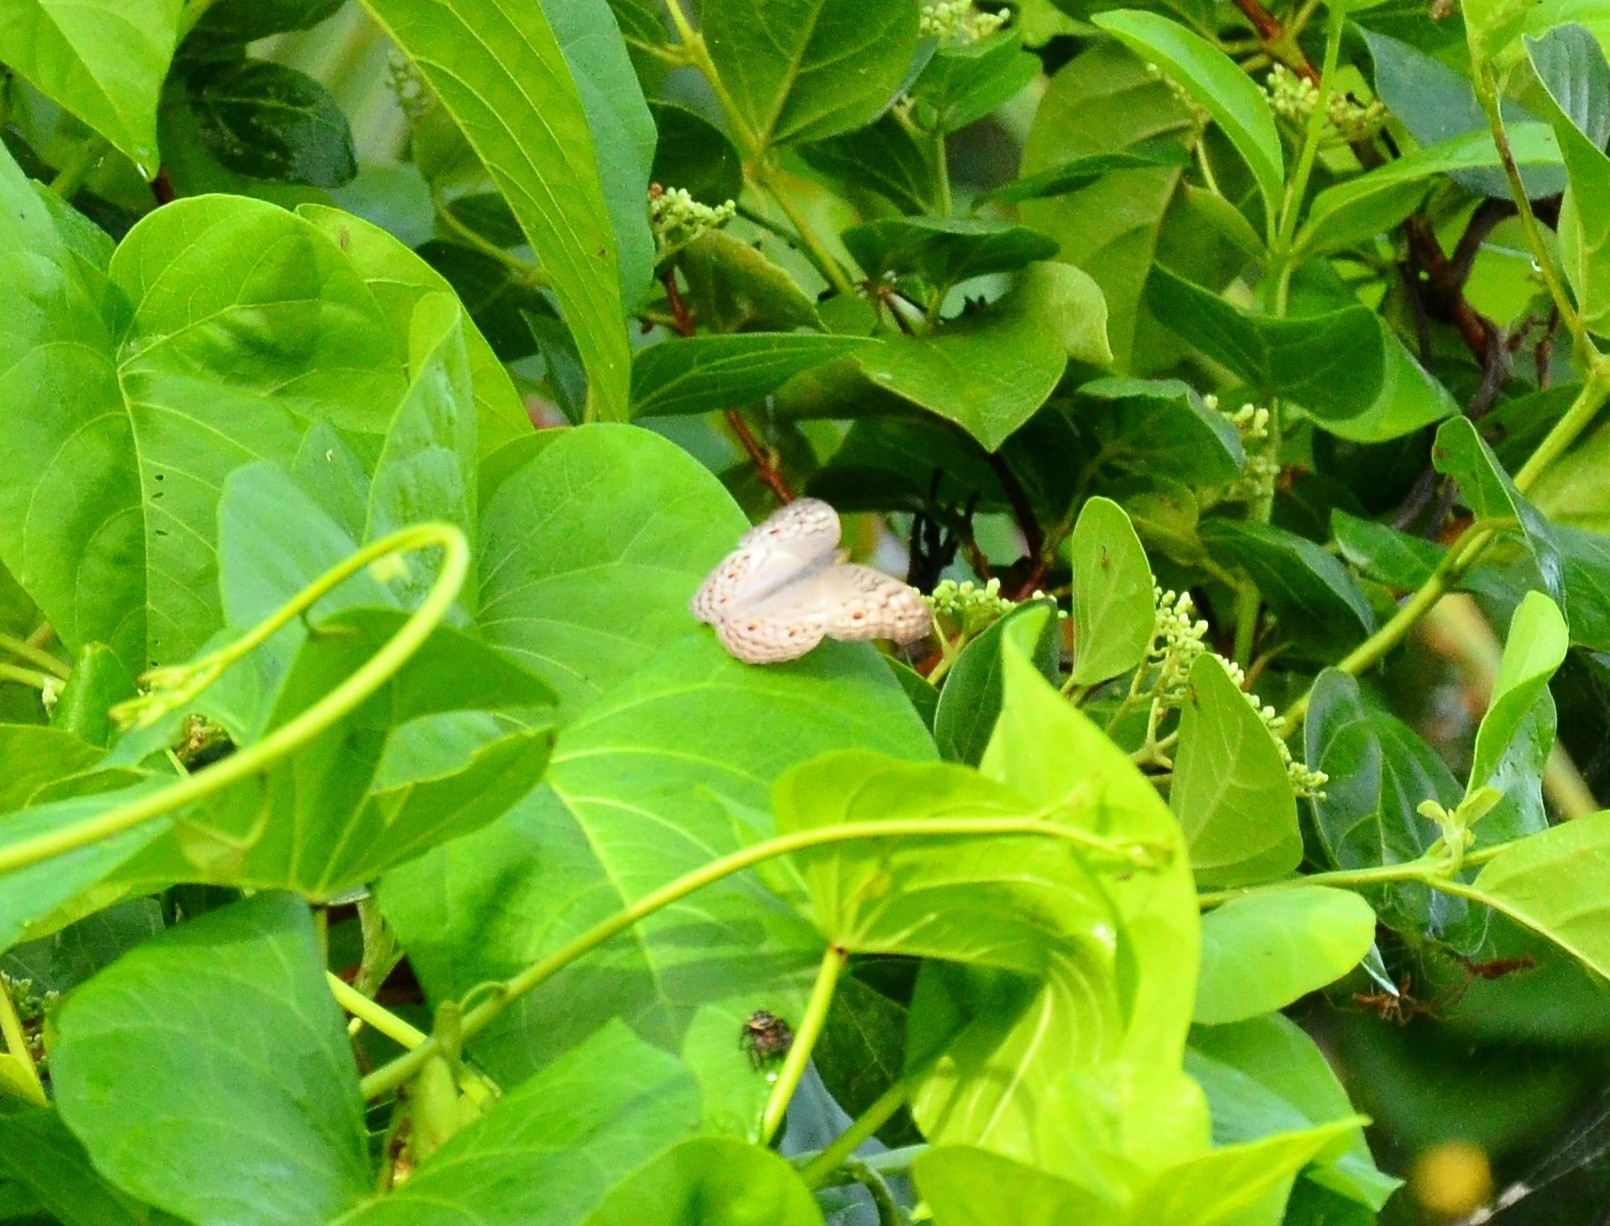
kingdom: Animalia
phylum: Arthropoda
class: Insecta
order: Lepidoptera
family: Nymphalidae
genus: Junonia
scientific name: Junonia atlites
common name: Grey pansy
